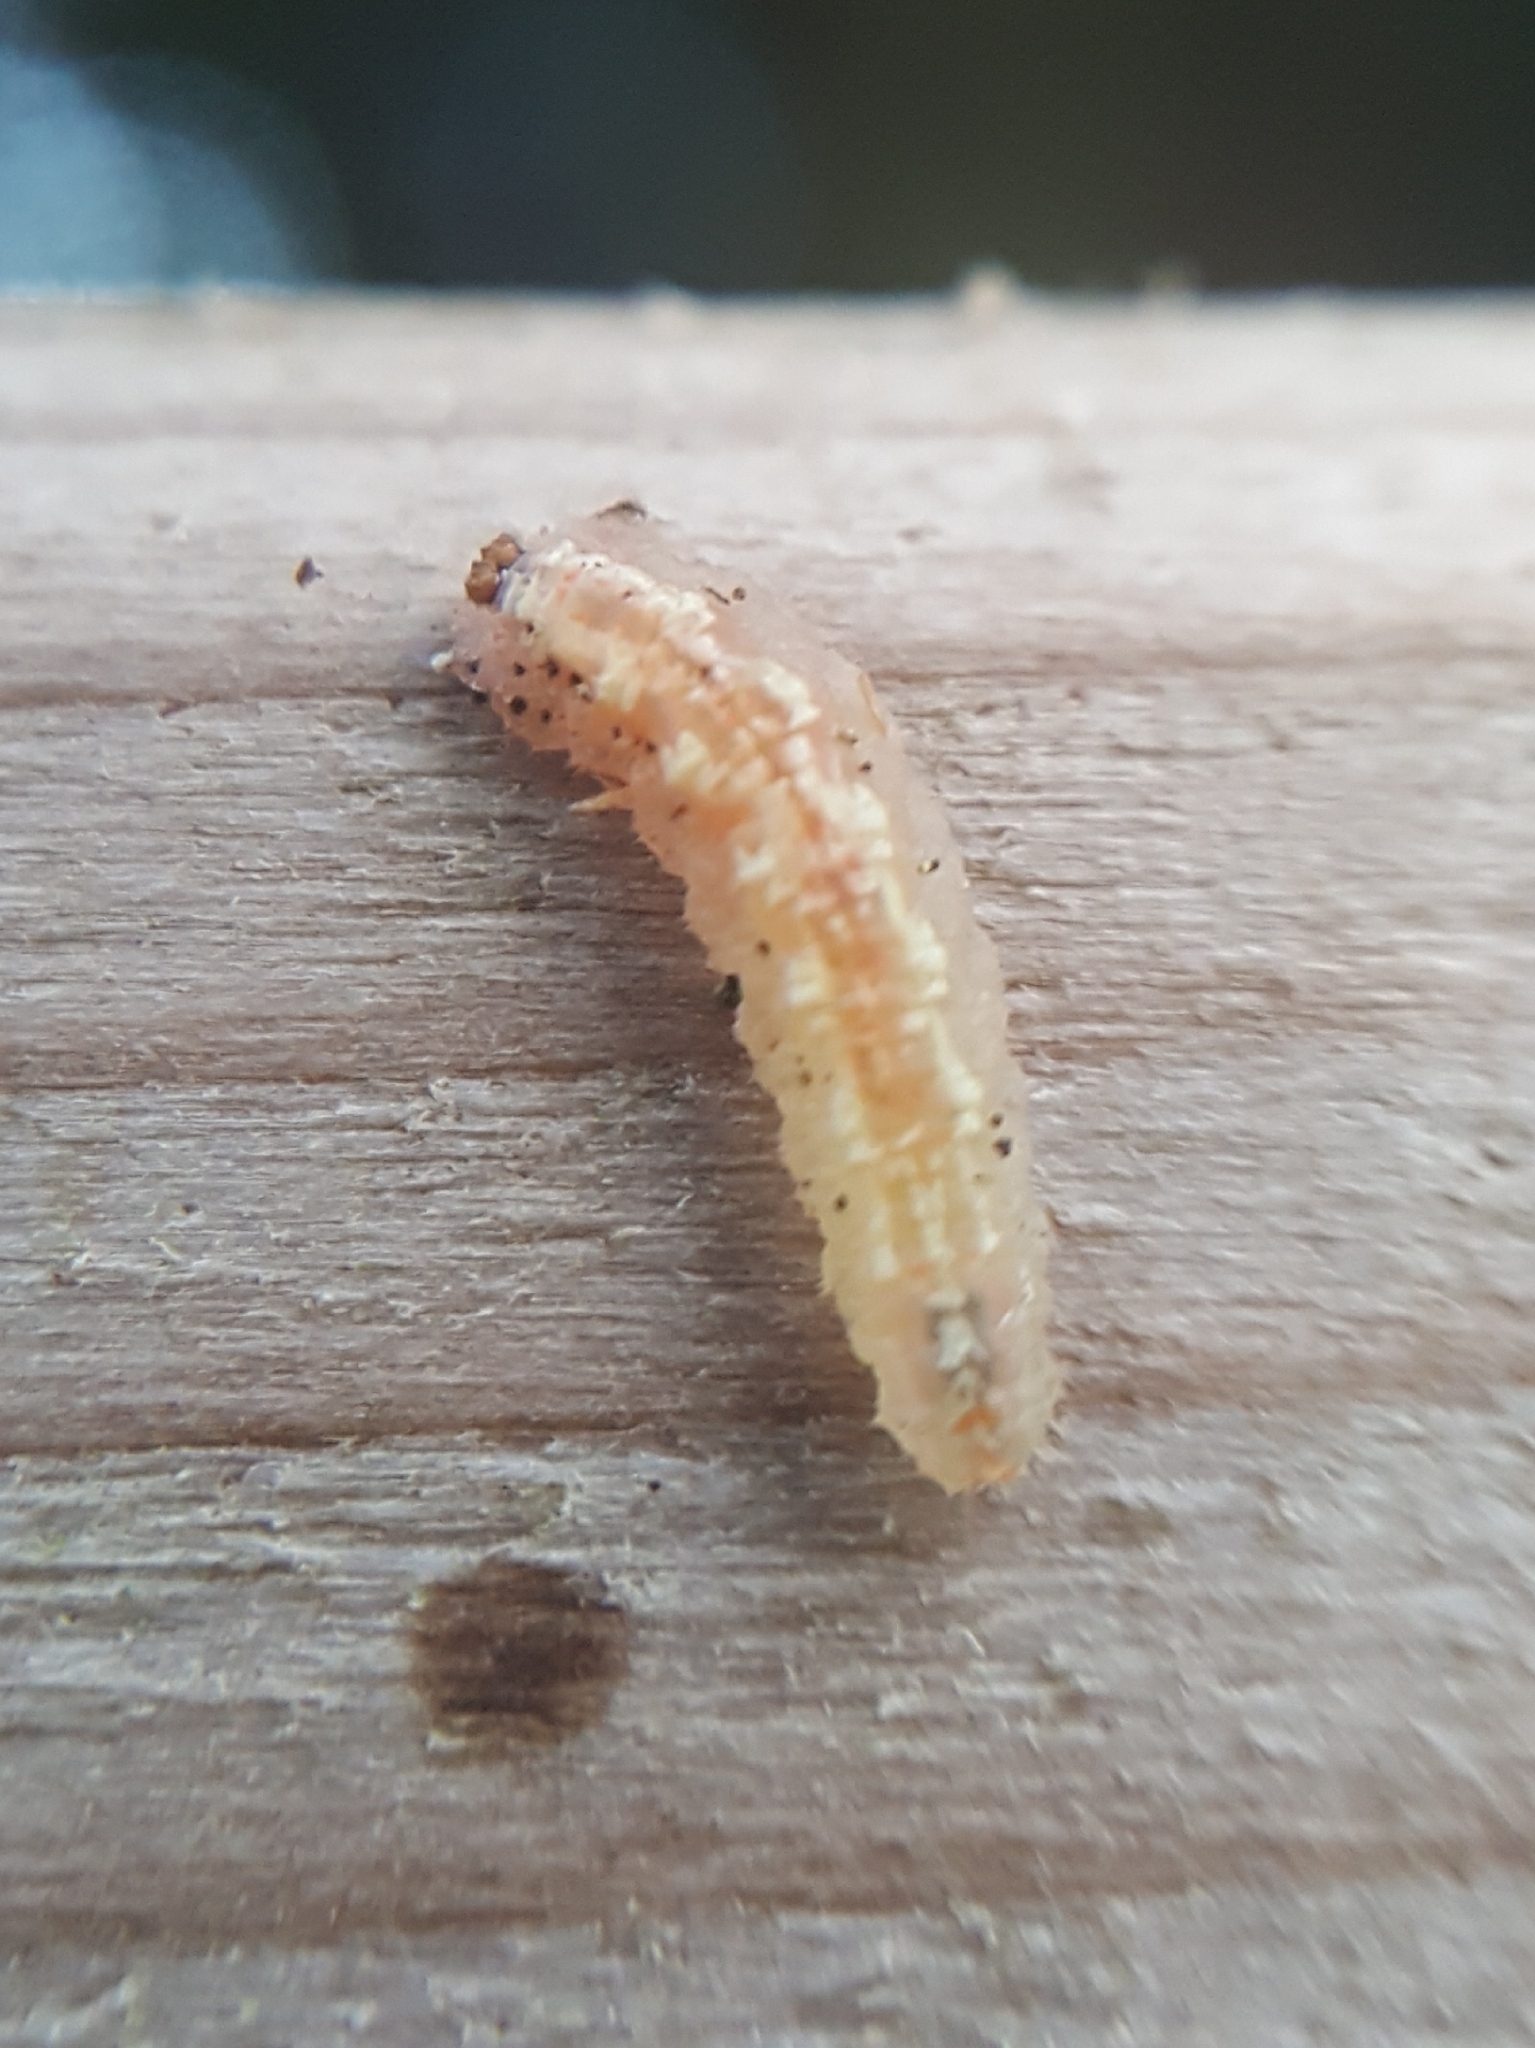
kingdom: Animalia
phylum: Arthropoda
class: Insecta
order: Diptera
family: Syrphidae
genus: Syrphus
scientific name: Syrphus
